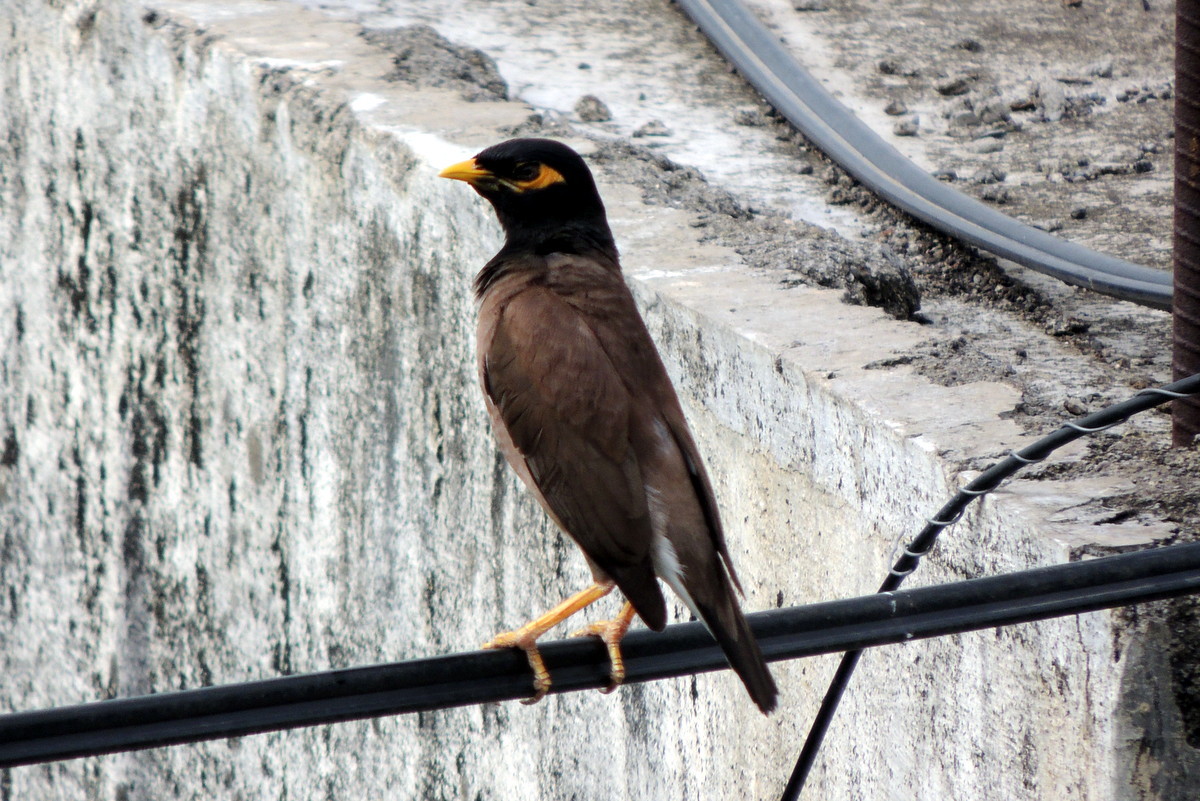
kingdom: Animalia
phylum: Chordata
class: Aves
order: Passeriformes
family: Sturnidae
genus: Acridotheres
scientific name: Acridotheres tristis
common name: Common myna
